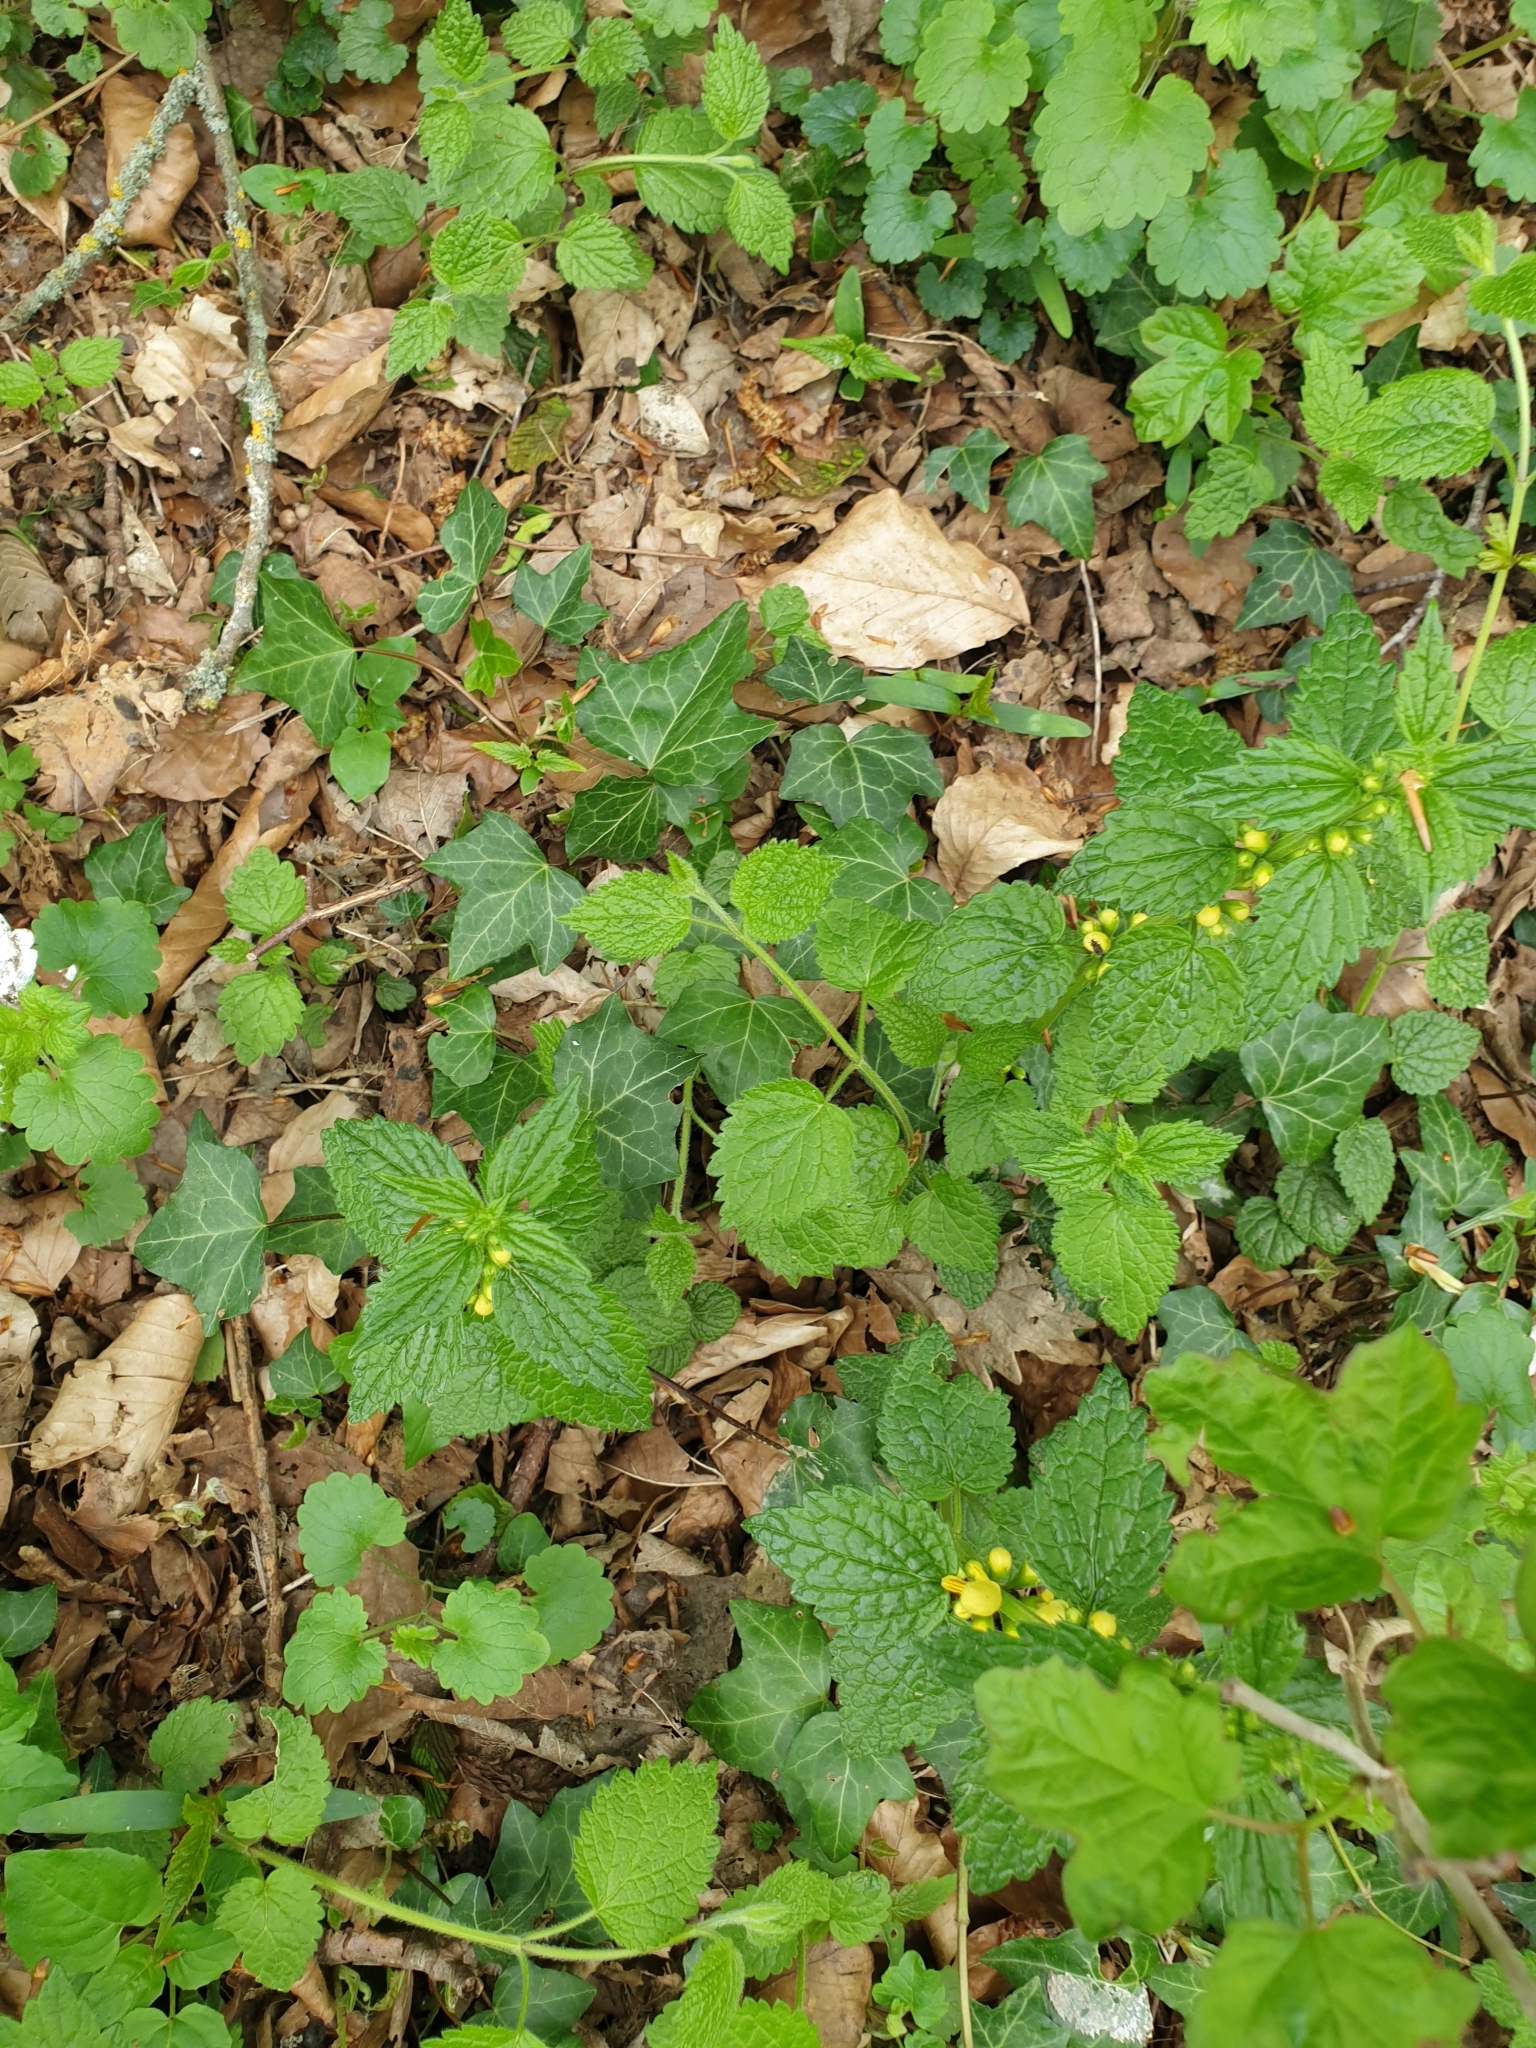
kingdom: Plantae
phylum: Tracheophyta
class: Magnoliopsida
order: Lamiales
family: Lamiaceae
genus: Lamium
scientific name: Lamium galeobdolon
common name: Yellow archangel
